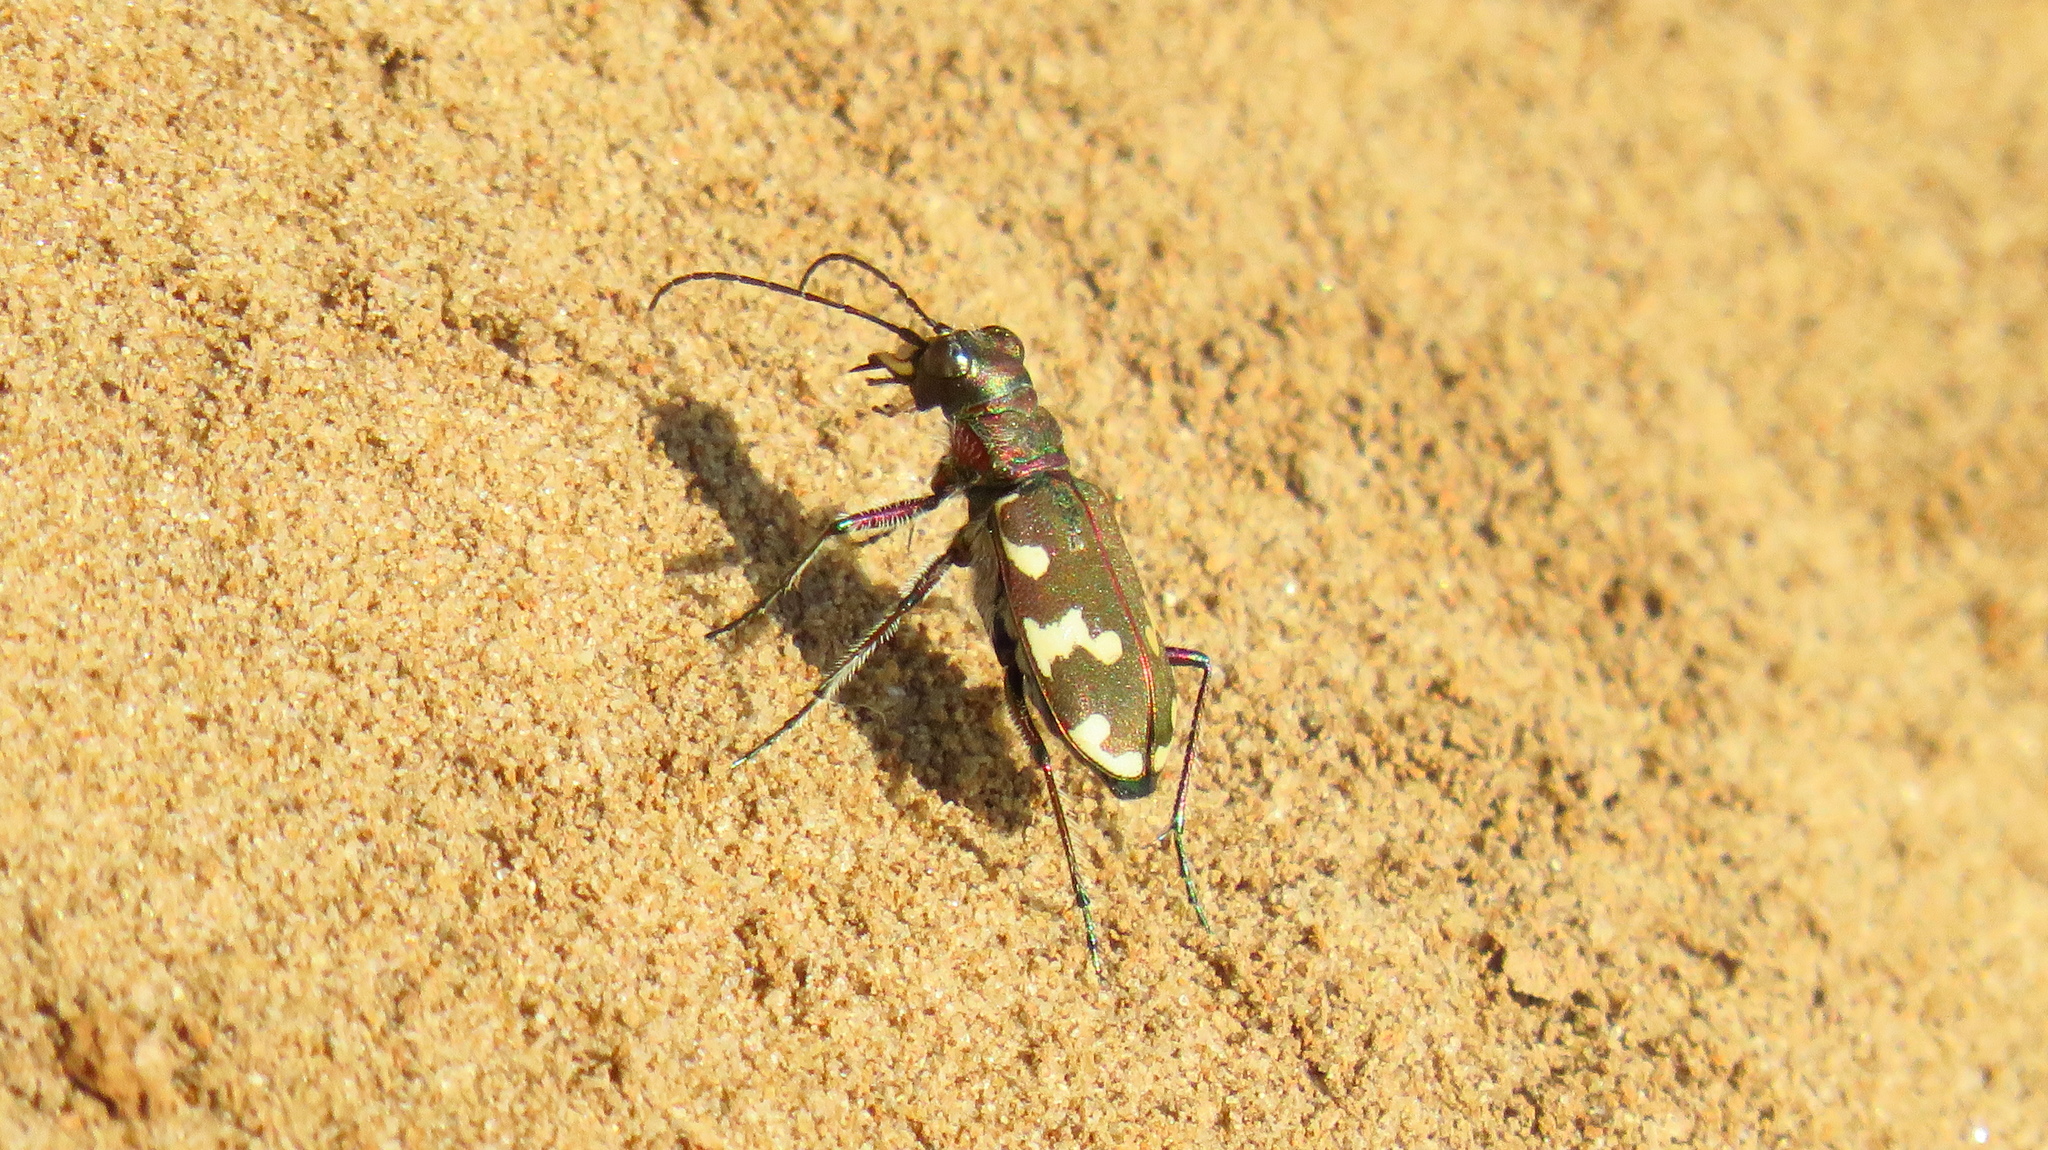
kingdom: Animalia
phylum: Arthropoda
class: Insecta
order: Coleoptera
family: Carabidae
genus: Cicindela
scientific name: Cicindela hybrida
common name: Northern dune tiger beetle
